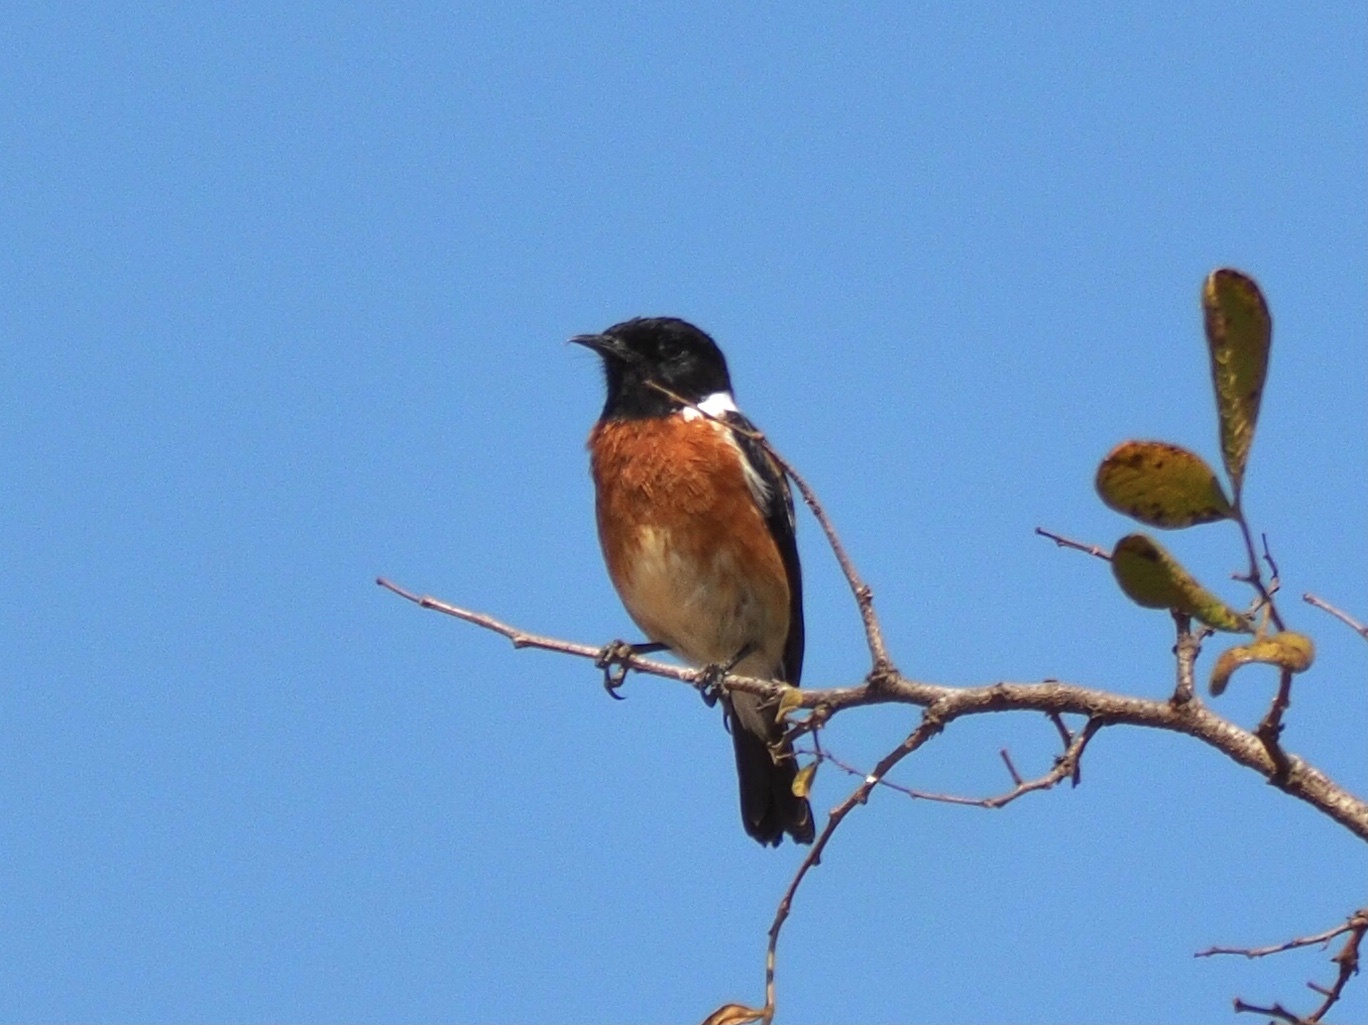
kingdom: Animalia
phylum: Chordata
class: Aves
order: Passeriformes
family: Muscicapidae
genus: Saxicola
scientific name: Saxicola torquatus
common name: African stonechat
